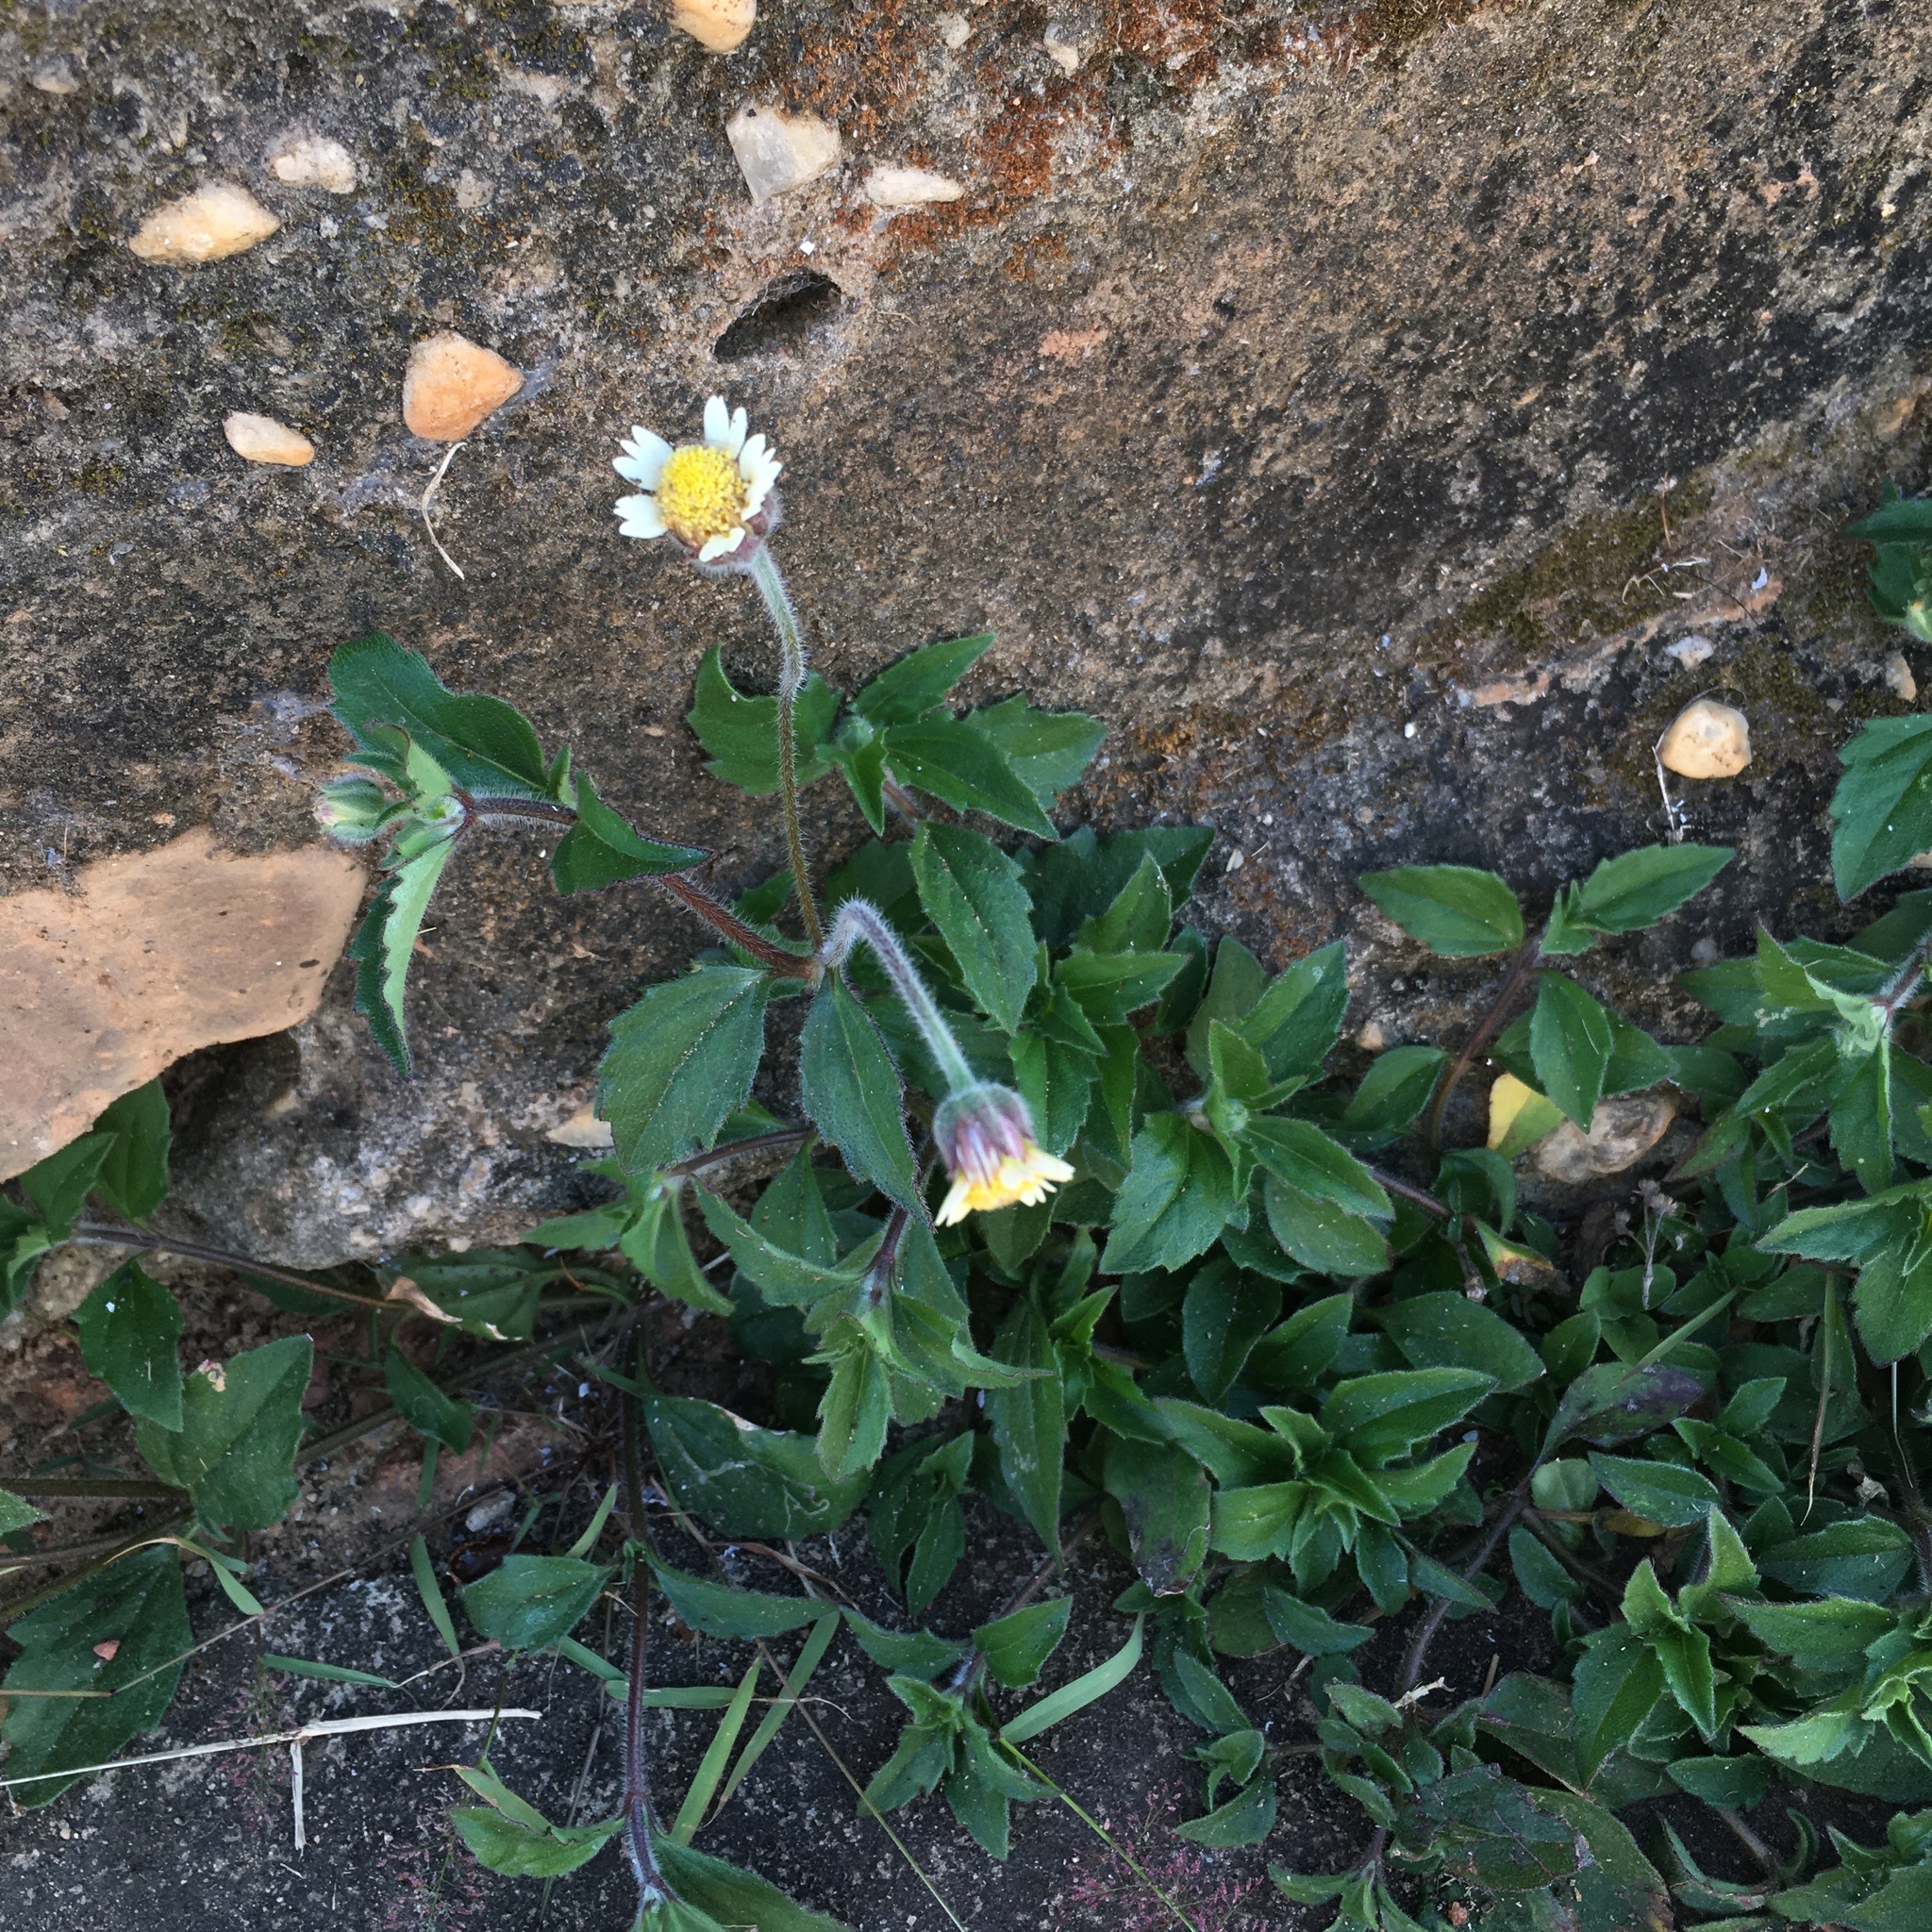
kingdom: Plantae
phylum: Tracheophyta
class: Magnoliopsida
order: Asterales
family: Asteraceae
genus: Tridax
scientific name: Tridax procumbens
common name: Coatbuttons
